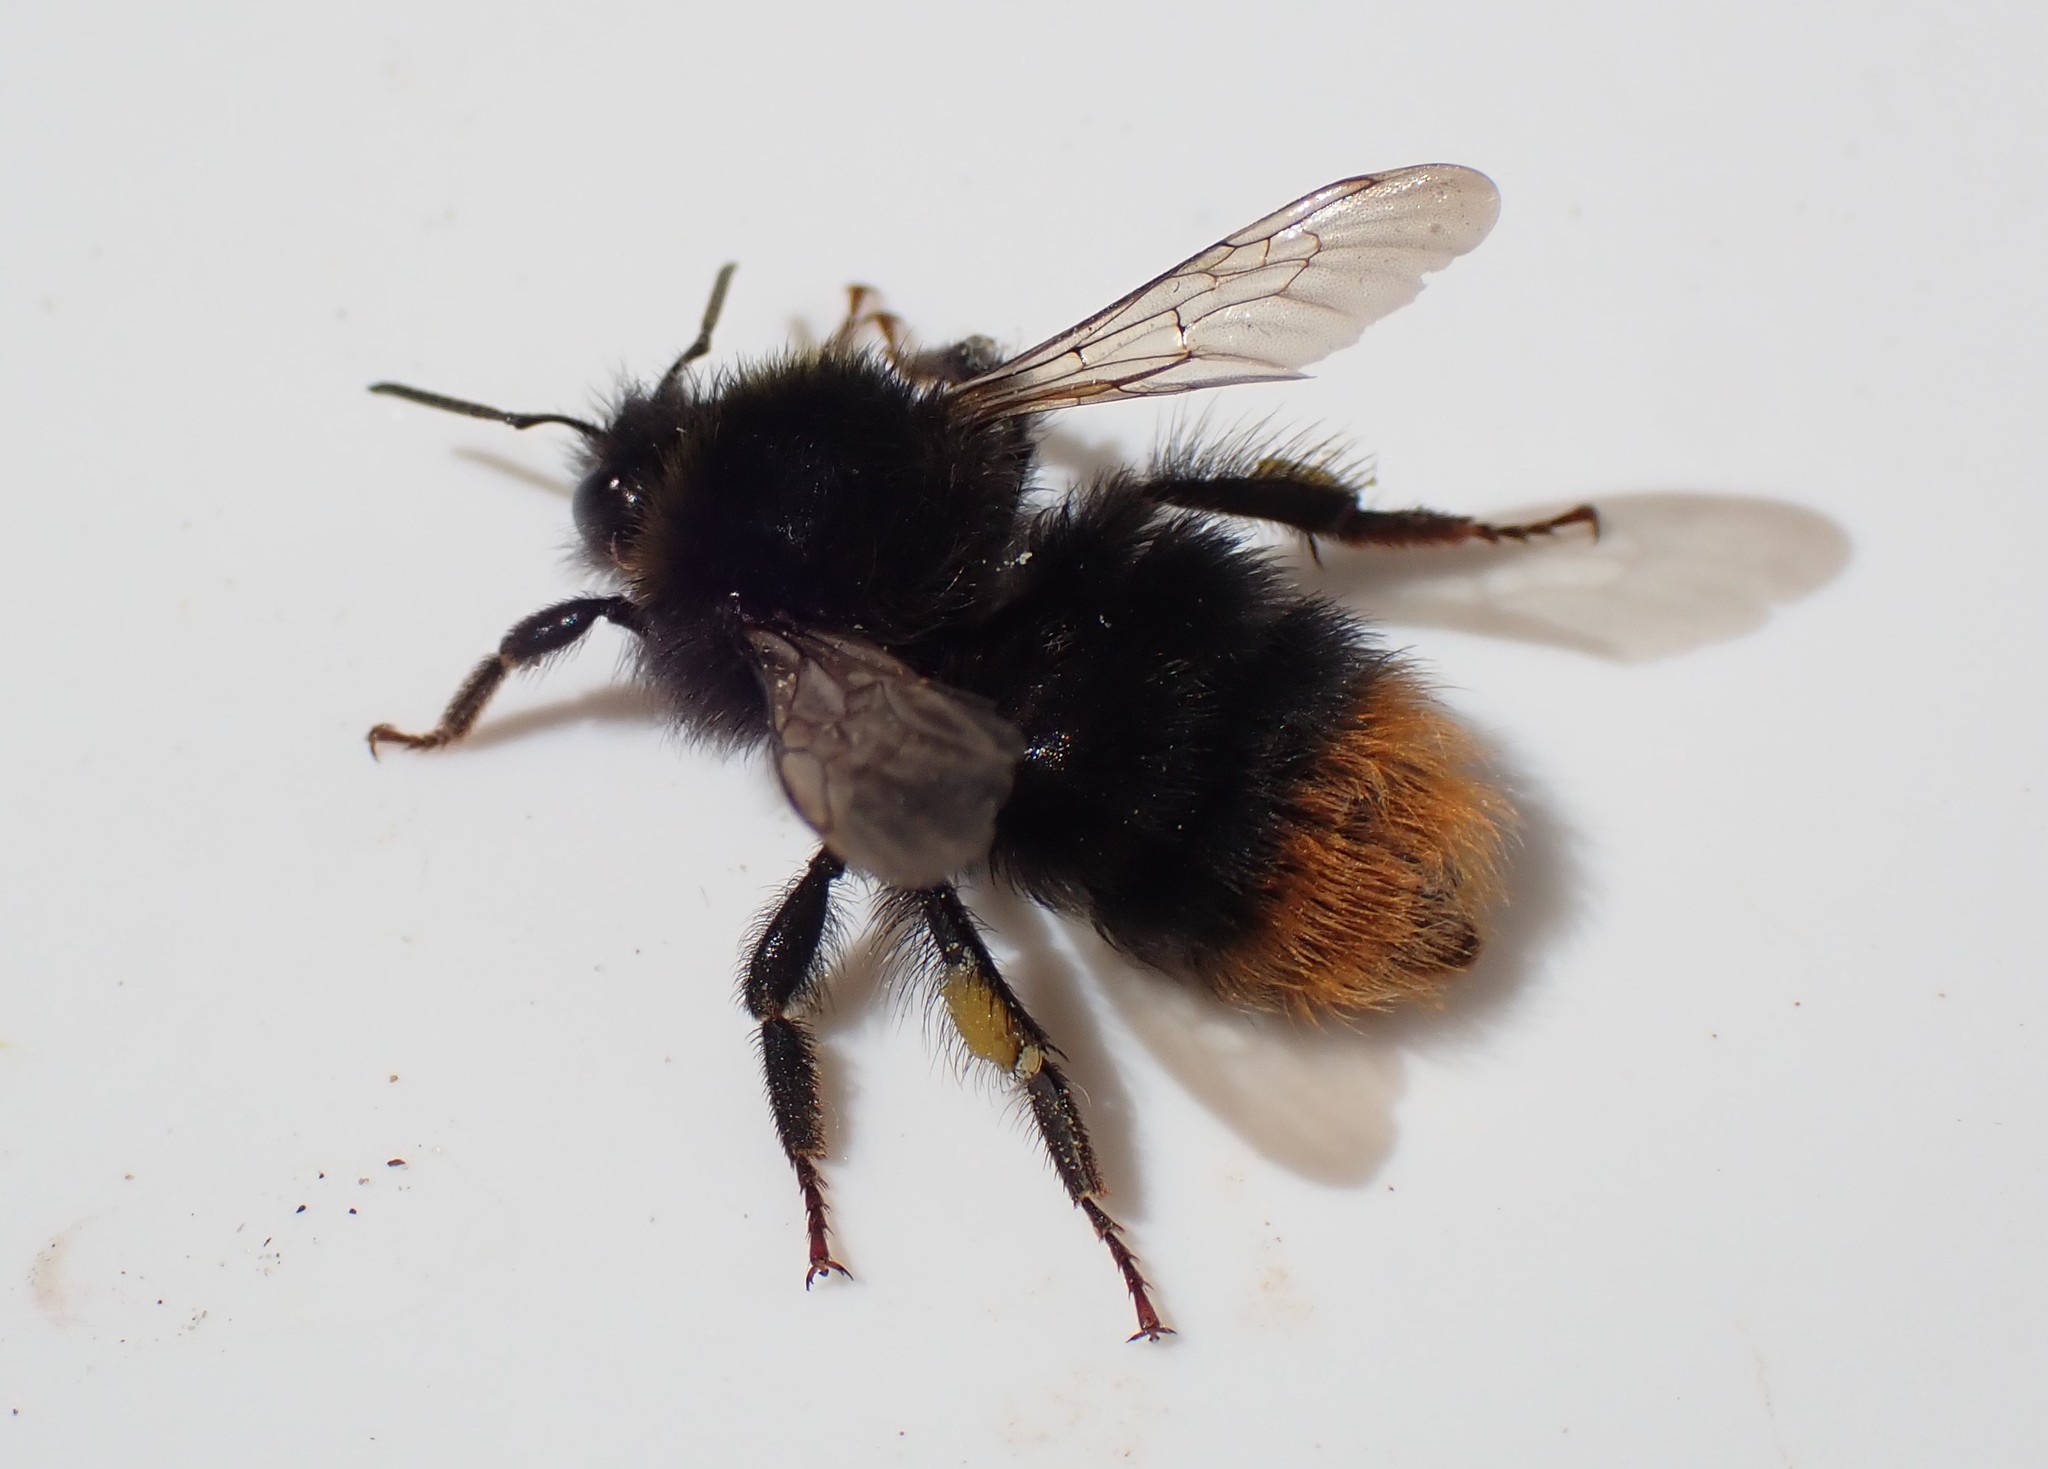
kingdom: Animalia
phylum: Arthropoda
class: Insecta
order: Hymenoptera
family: Apidae
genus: Bombus
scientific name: Bombus lapidarius
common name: Large red-tailed humble-bee
